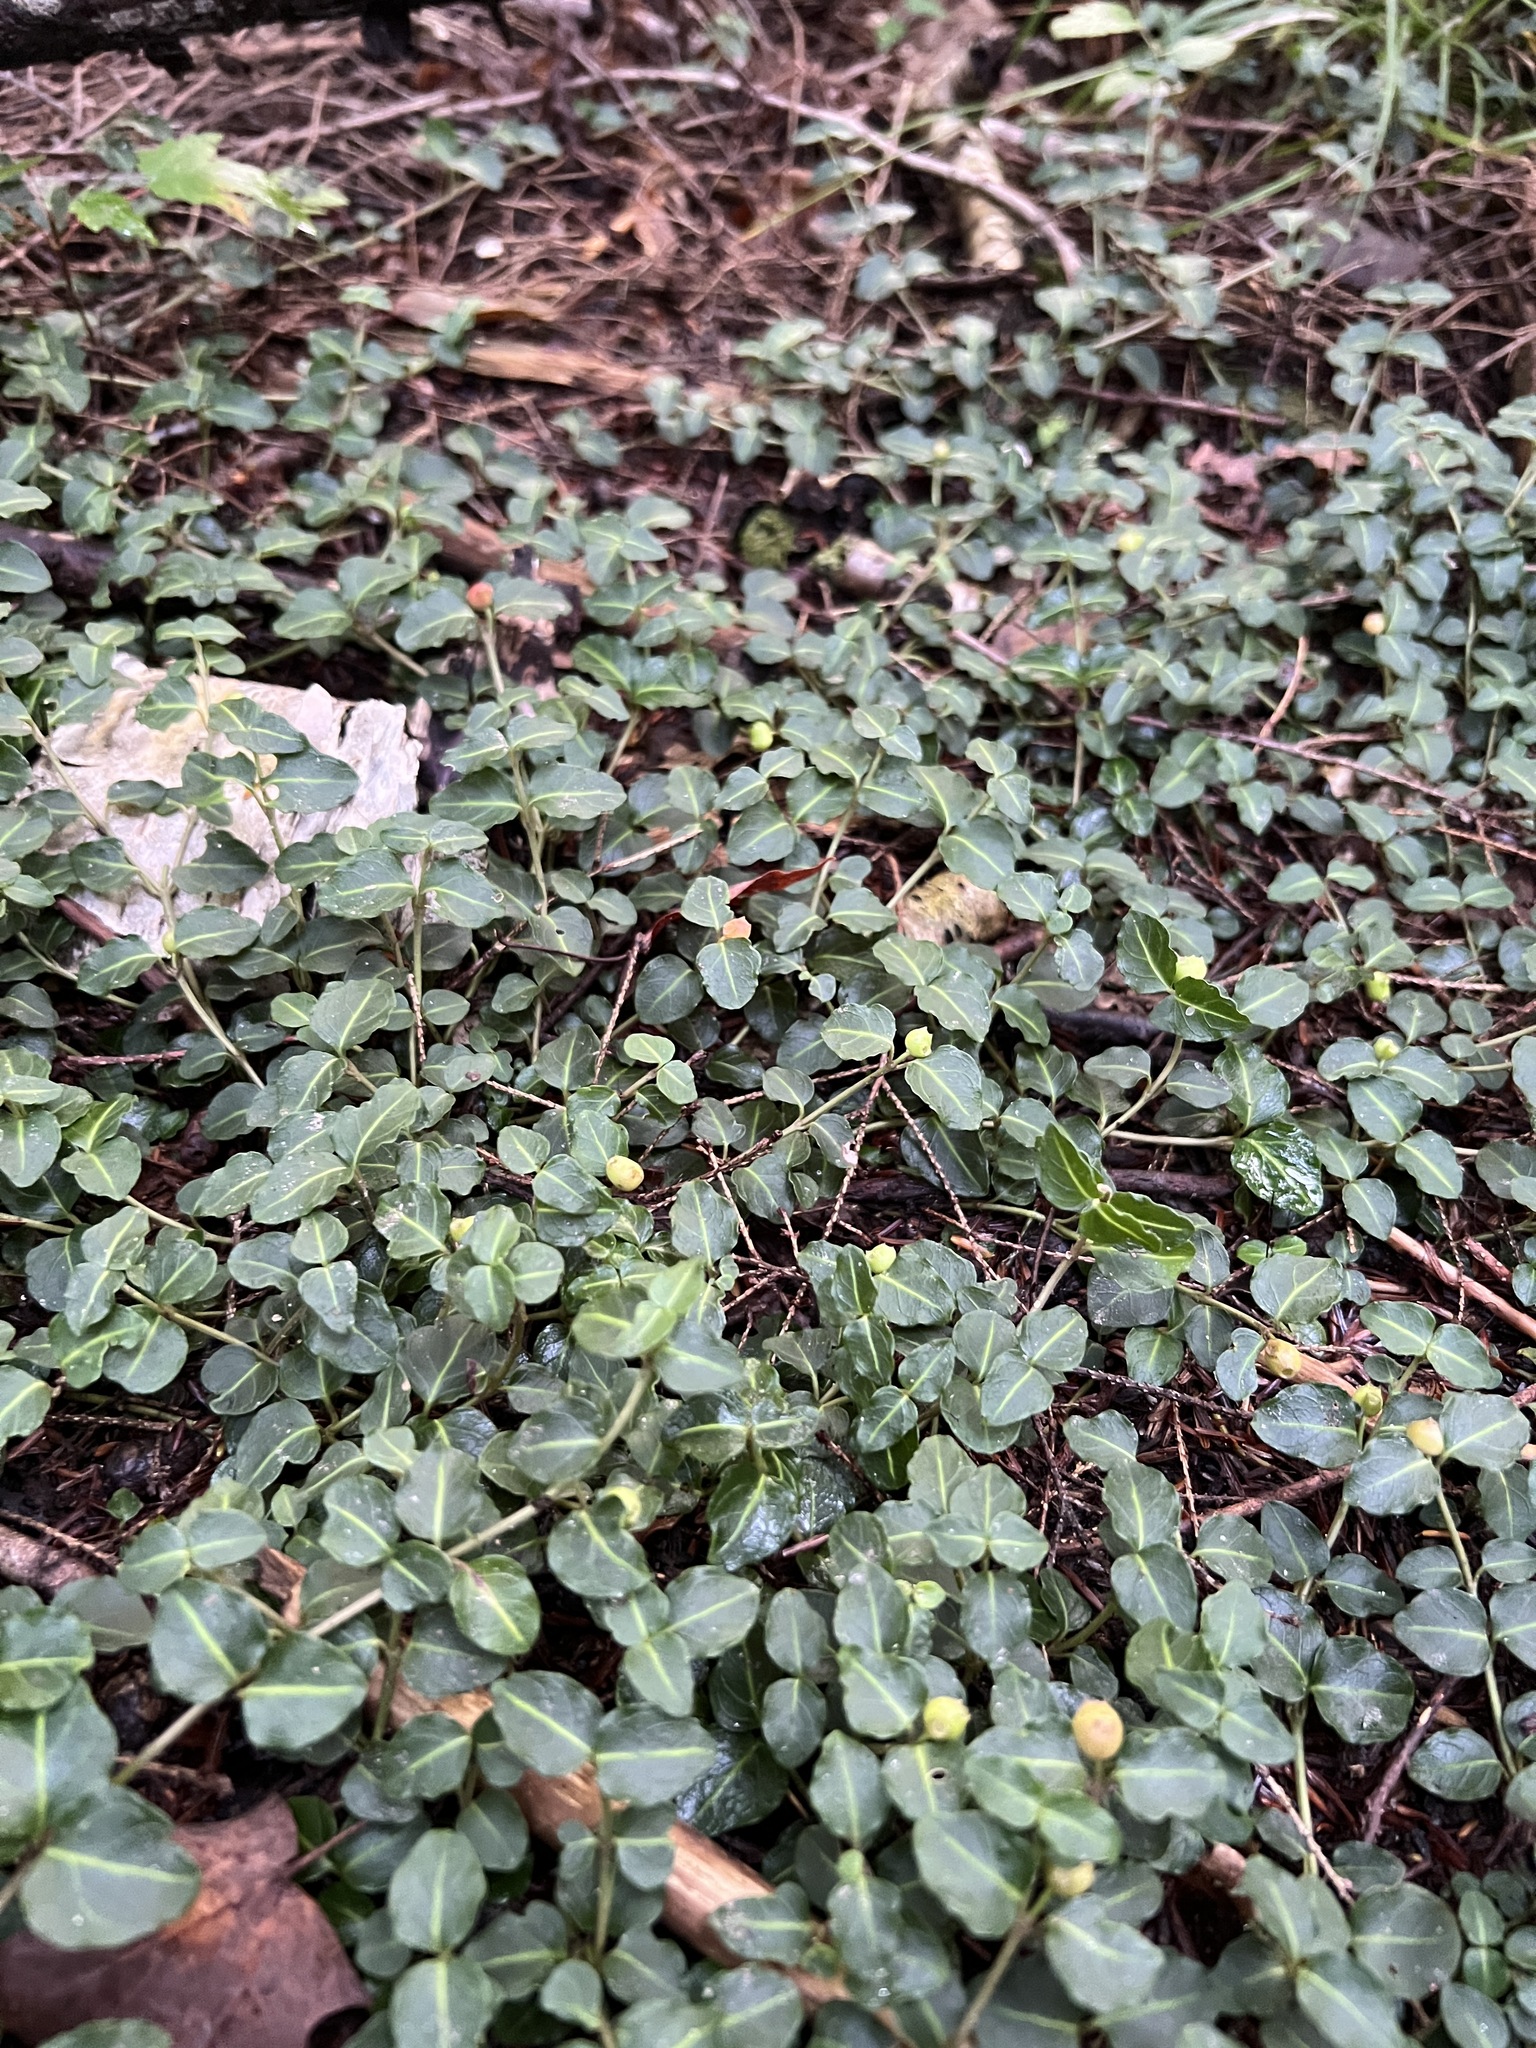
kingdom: Plantae
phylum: Tracheophyta
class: Magnoliopsida
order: Gentianales
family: Rubiaceae
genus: Mitchella
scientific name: Mitchella repens
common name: Partridge-berry
